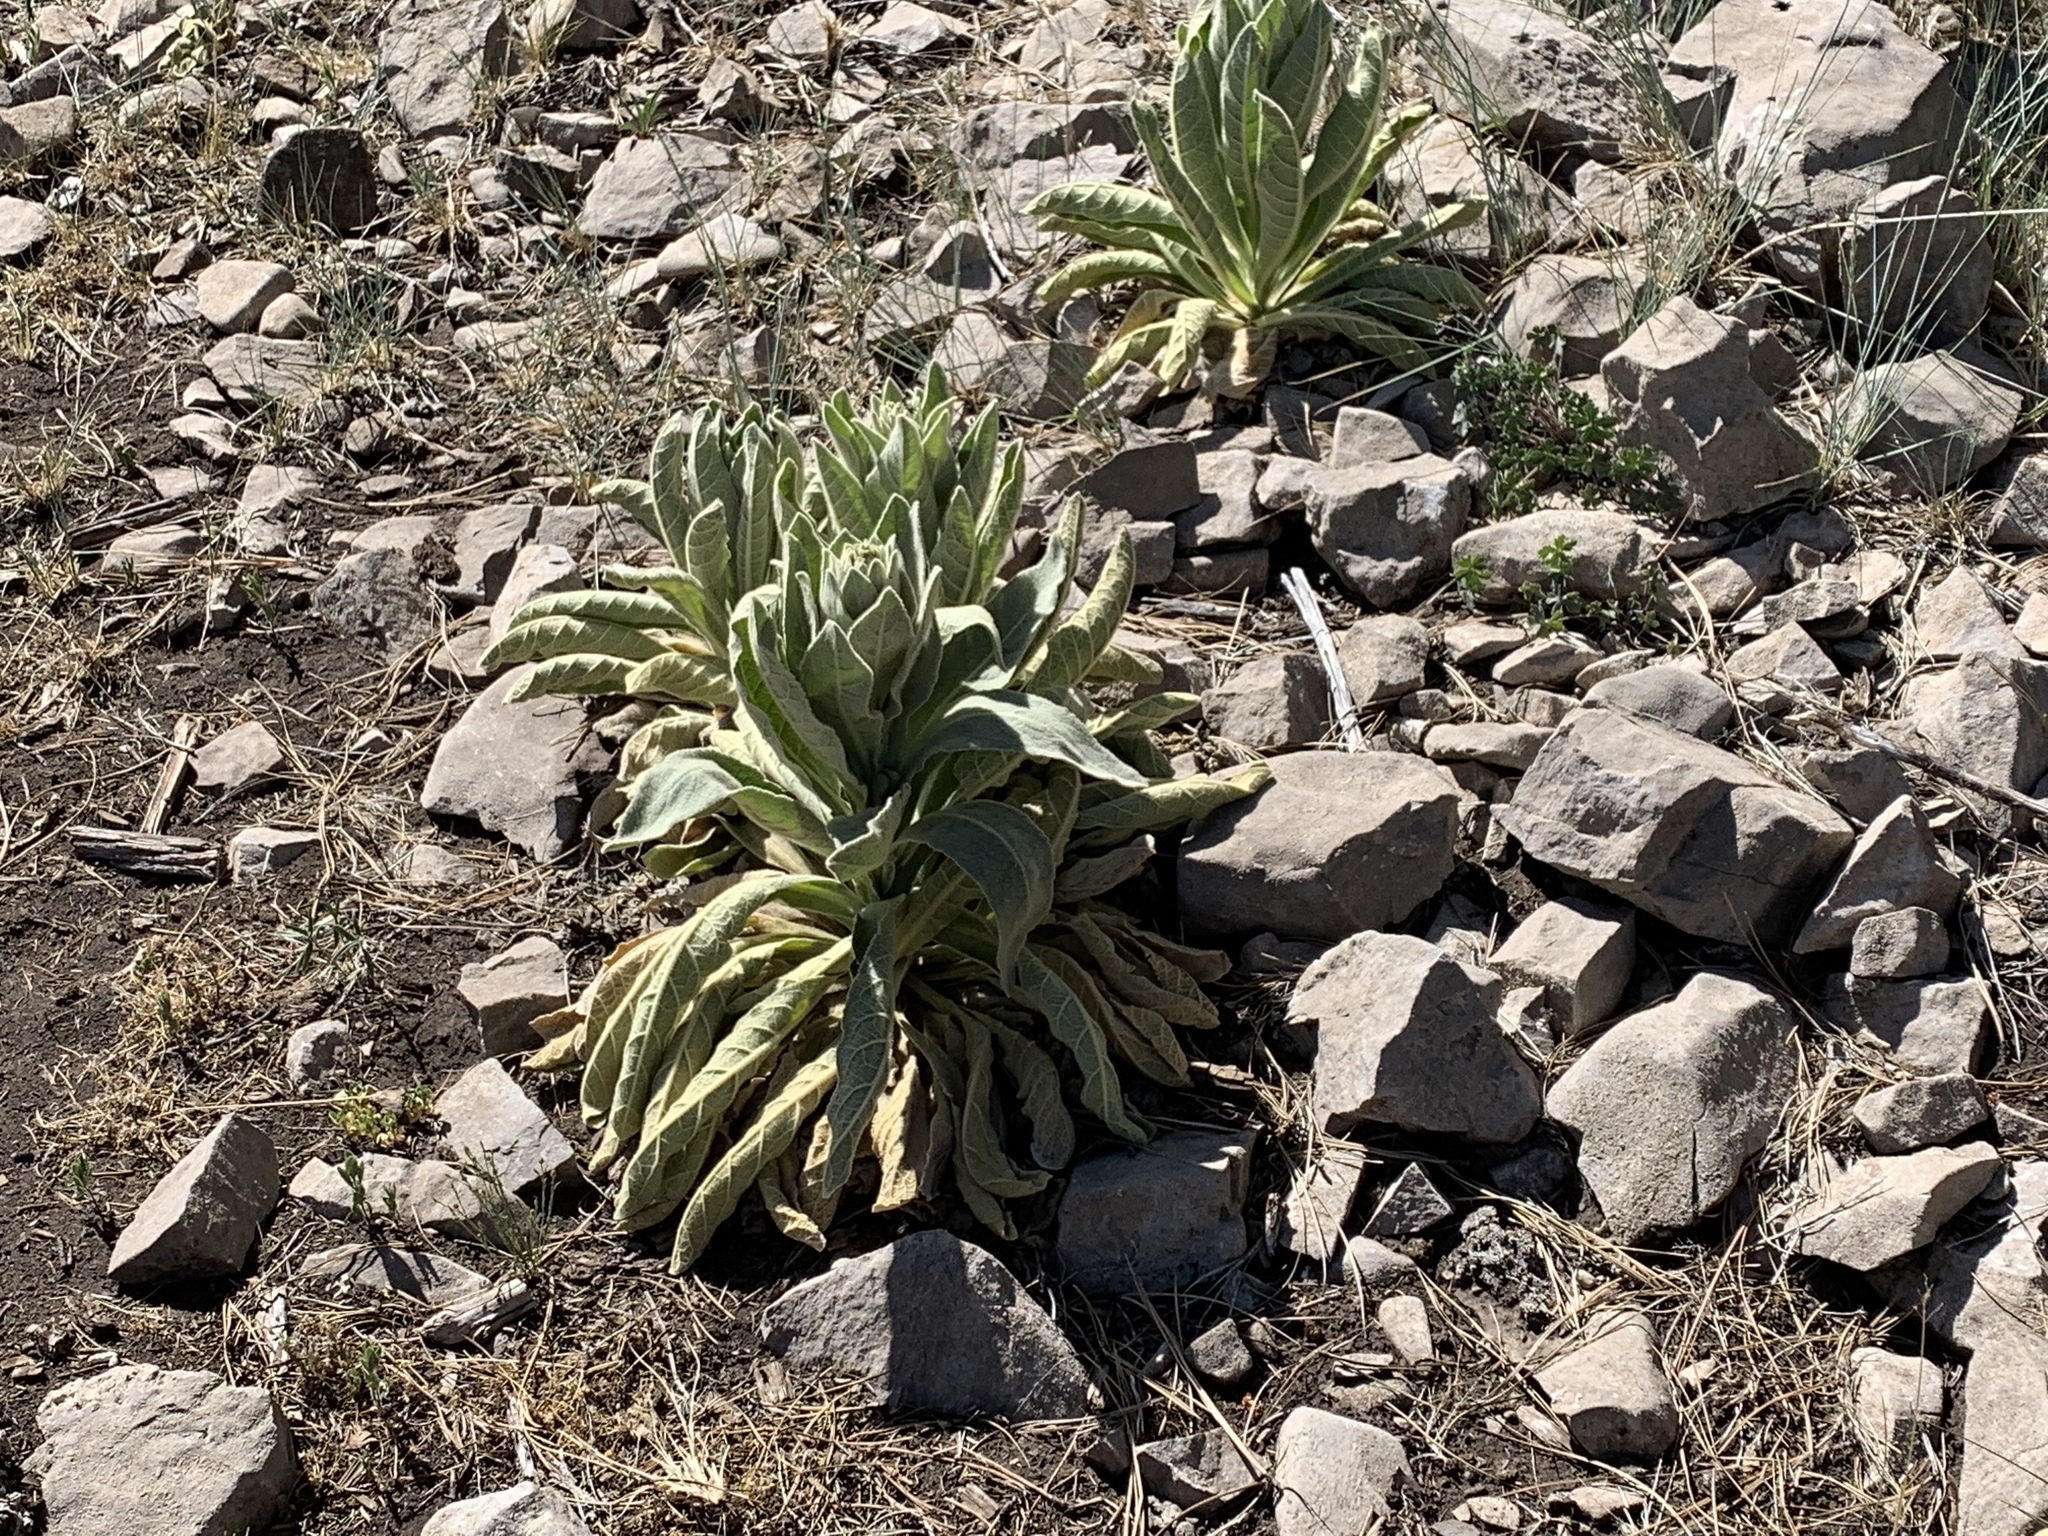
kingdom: Plantae
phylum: Tracheophyta
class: Magnoliopsida
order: Lamiales
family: Scrophulariaceae
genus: Verbascum
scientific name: Verbascum thapsus
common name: Common mullein
